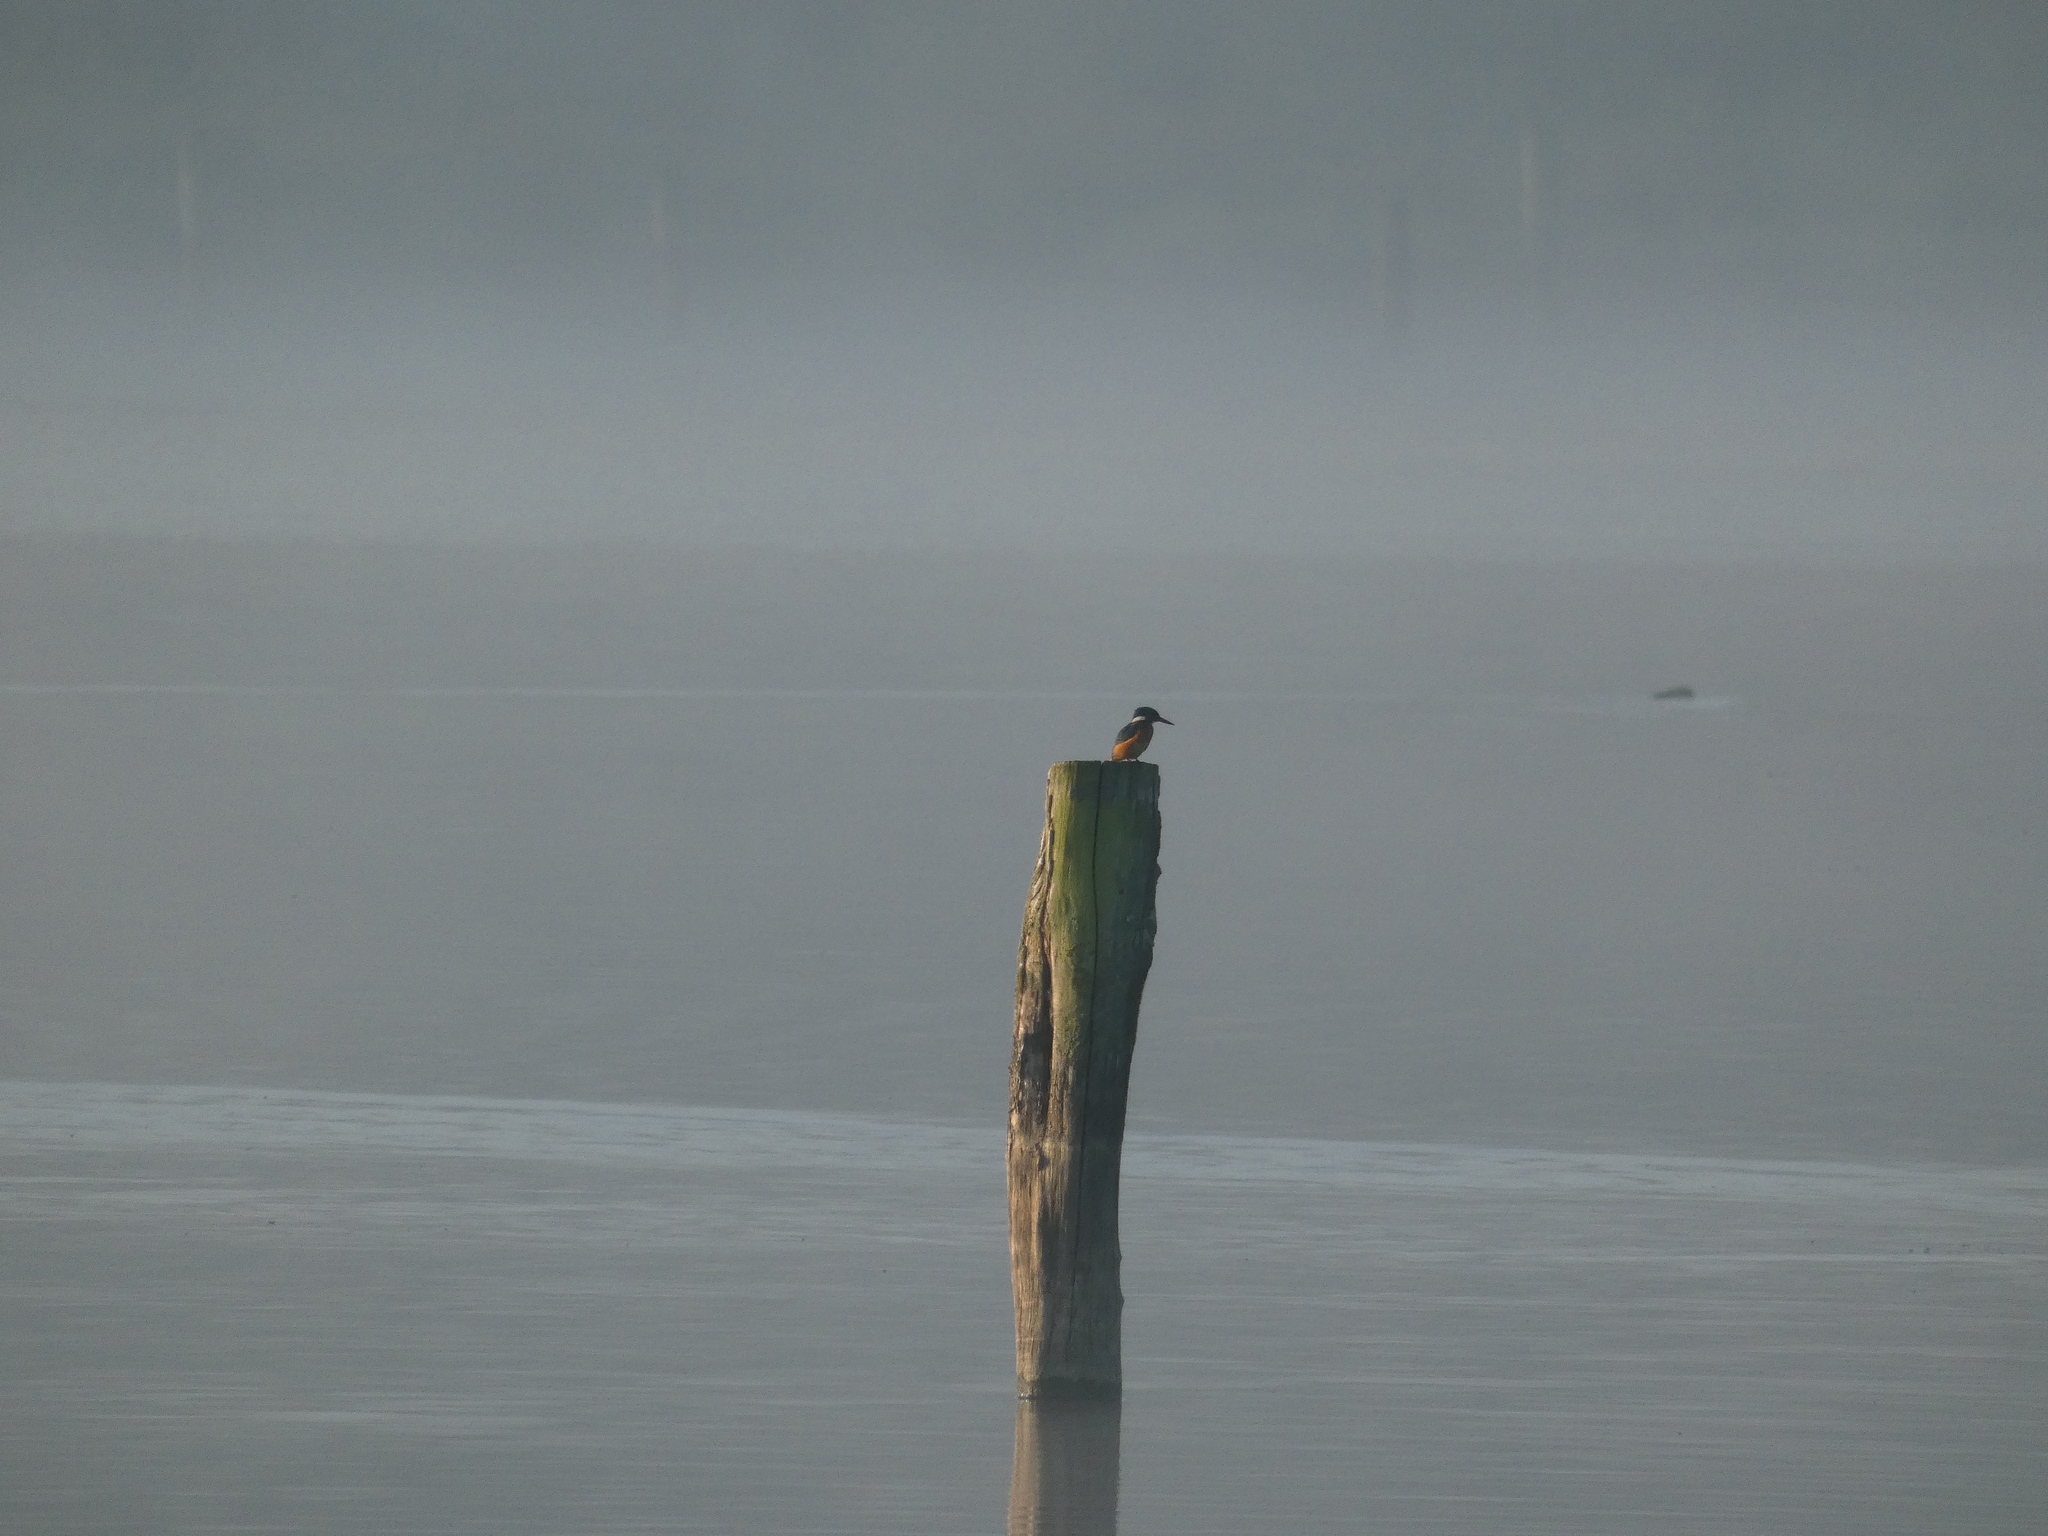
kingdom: Animalia
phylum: Chordata
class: Aves
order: Coraciiformes
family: Alcedinidae
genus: Alcedo
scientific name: Alcedo atthis
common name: Common kingfisher
